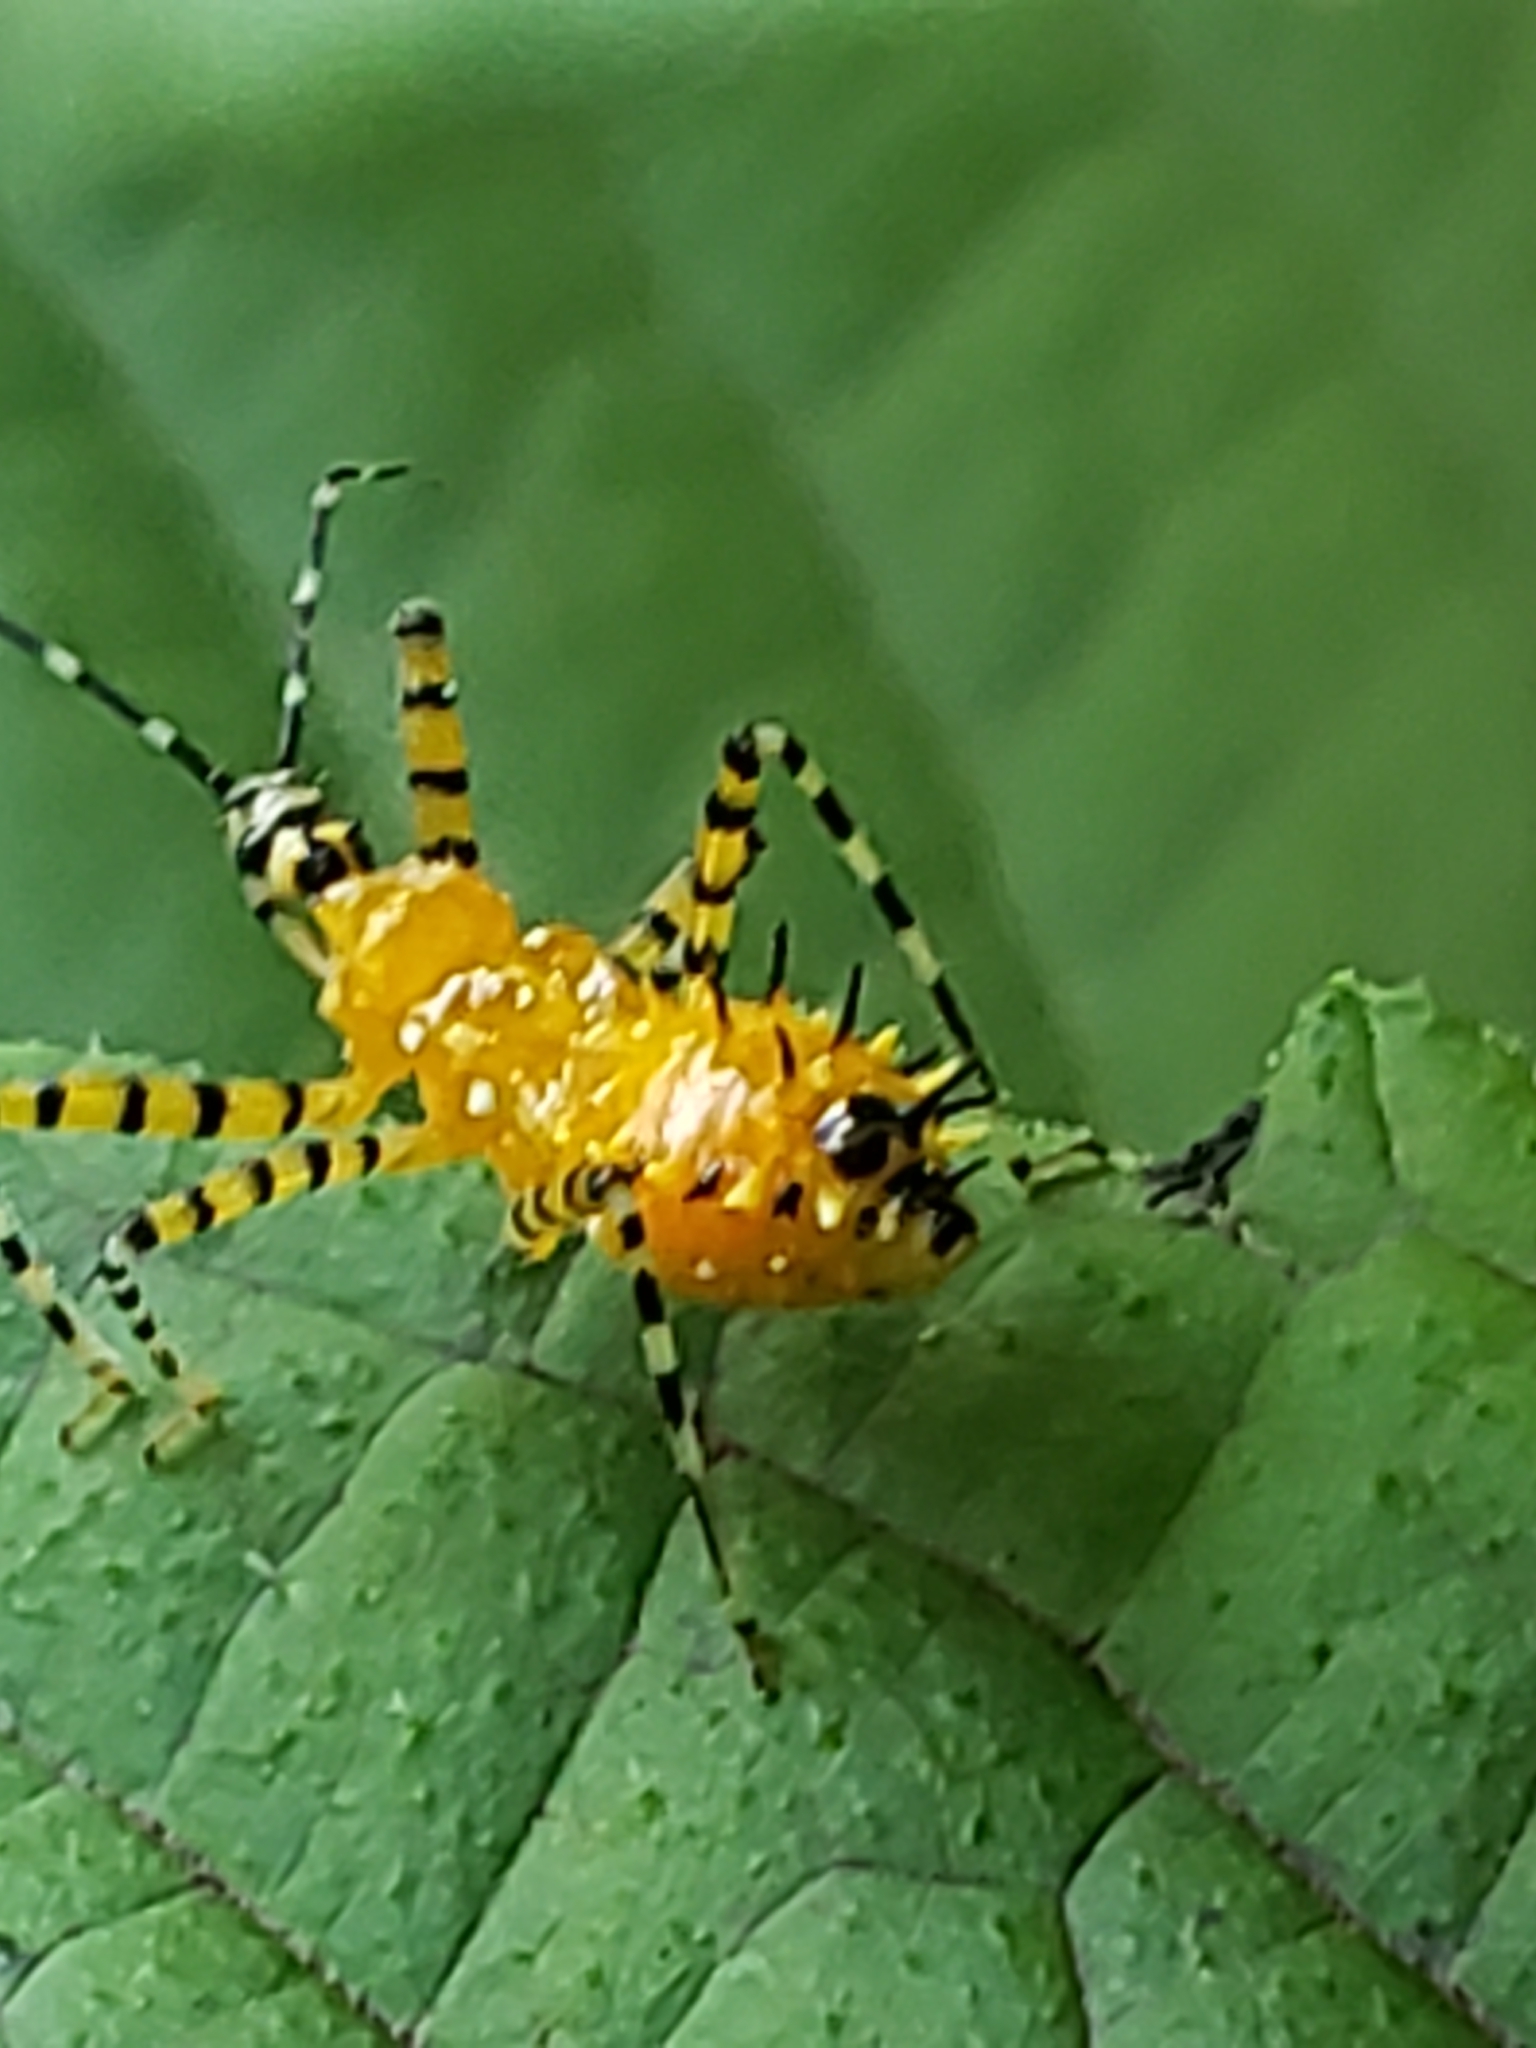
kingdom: Animalia
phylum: Arthropoda
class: Insecta
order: Hemiptera
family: Reduviidae
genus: Pselliopus
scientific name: Pselliopus barberi
